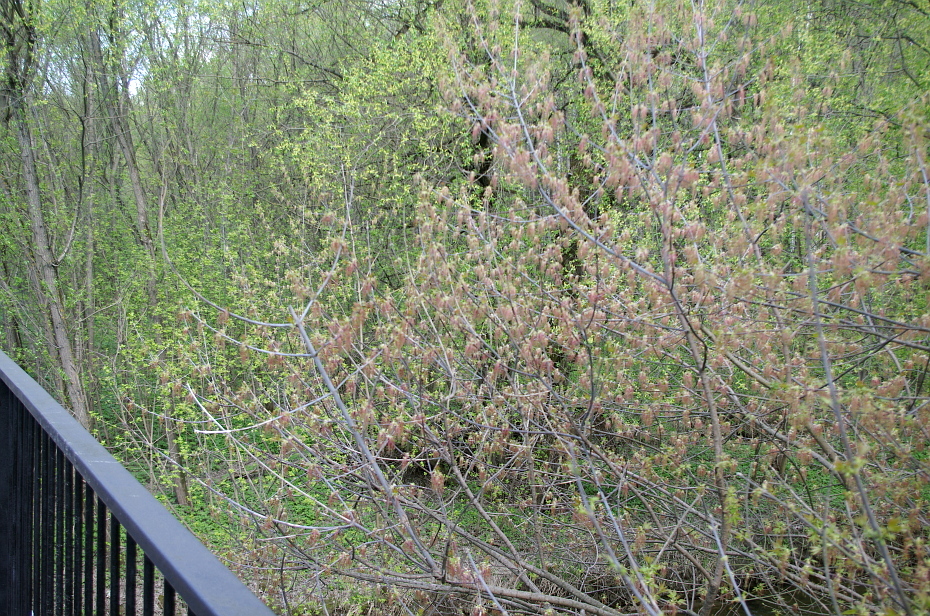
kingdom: Plantae
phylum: Tracheophyta
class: Magnoliopsida
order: Sapindales
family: Sapindaceae
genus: Acer
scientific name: Acer negundo
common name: Ashleaf maple
